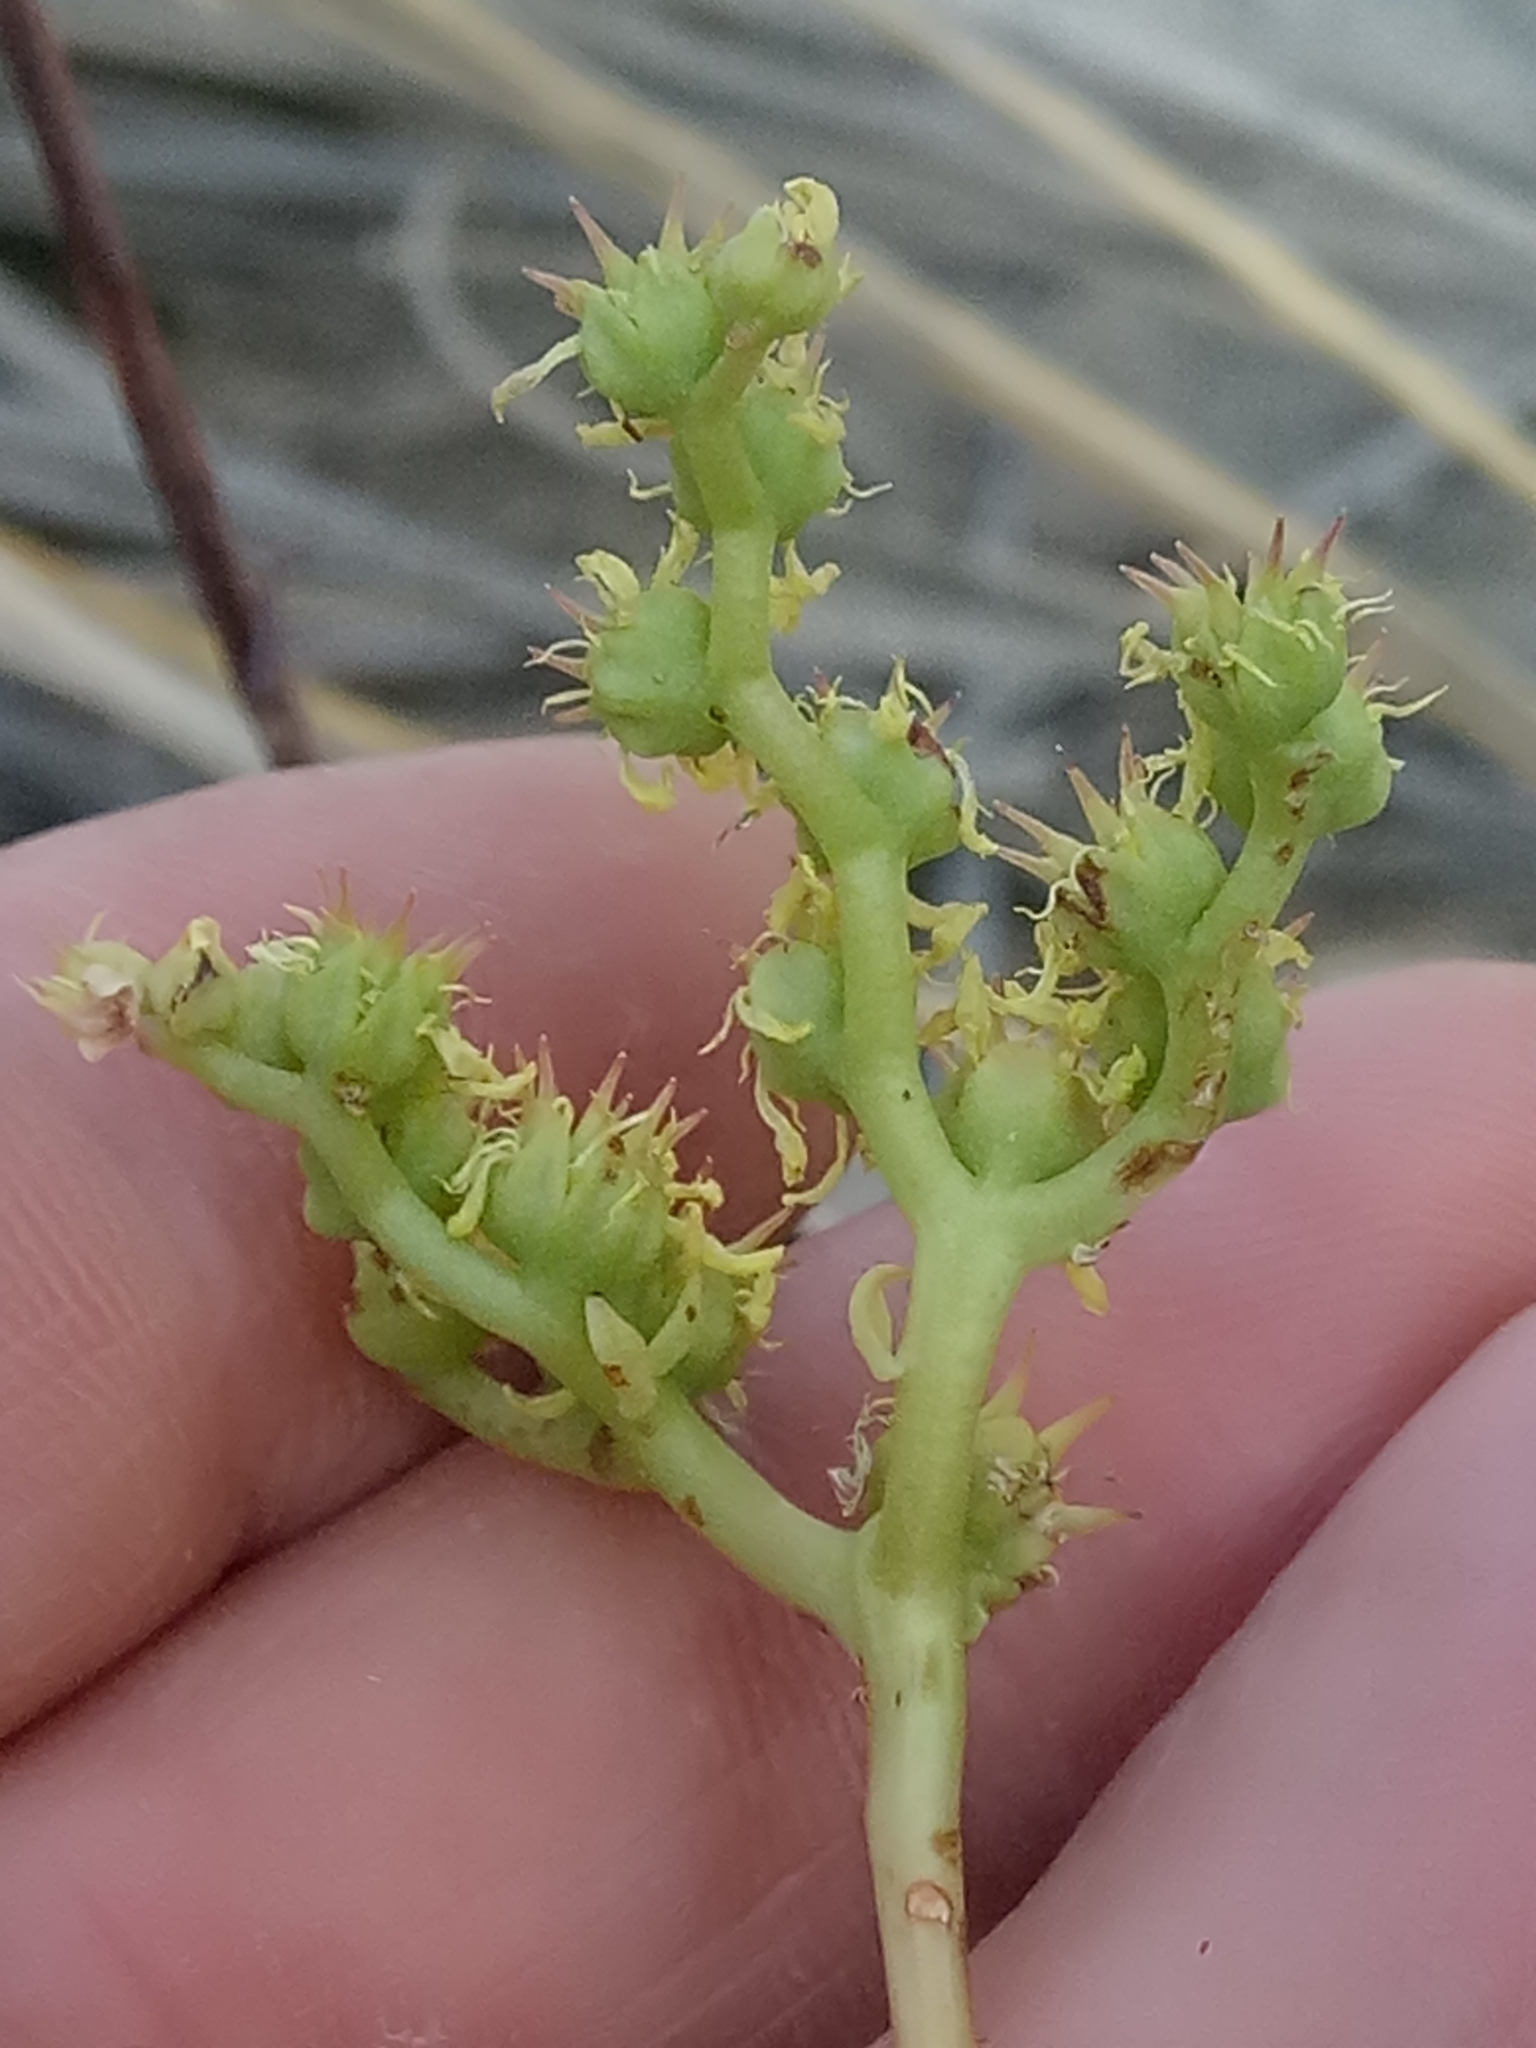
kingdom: Plantae
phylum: Tracheophyta
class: Magnoliopsida
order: Saxifragales
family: Crassulaceae
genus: Petrosedum
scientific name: Petrosedum sediforme
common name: Pale stonecrop
